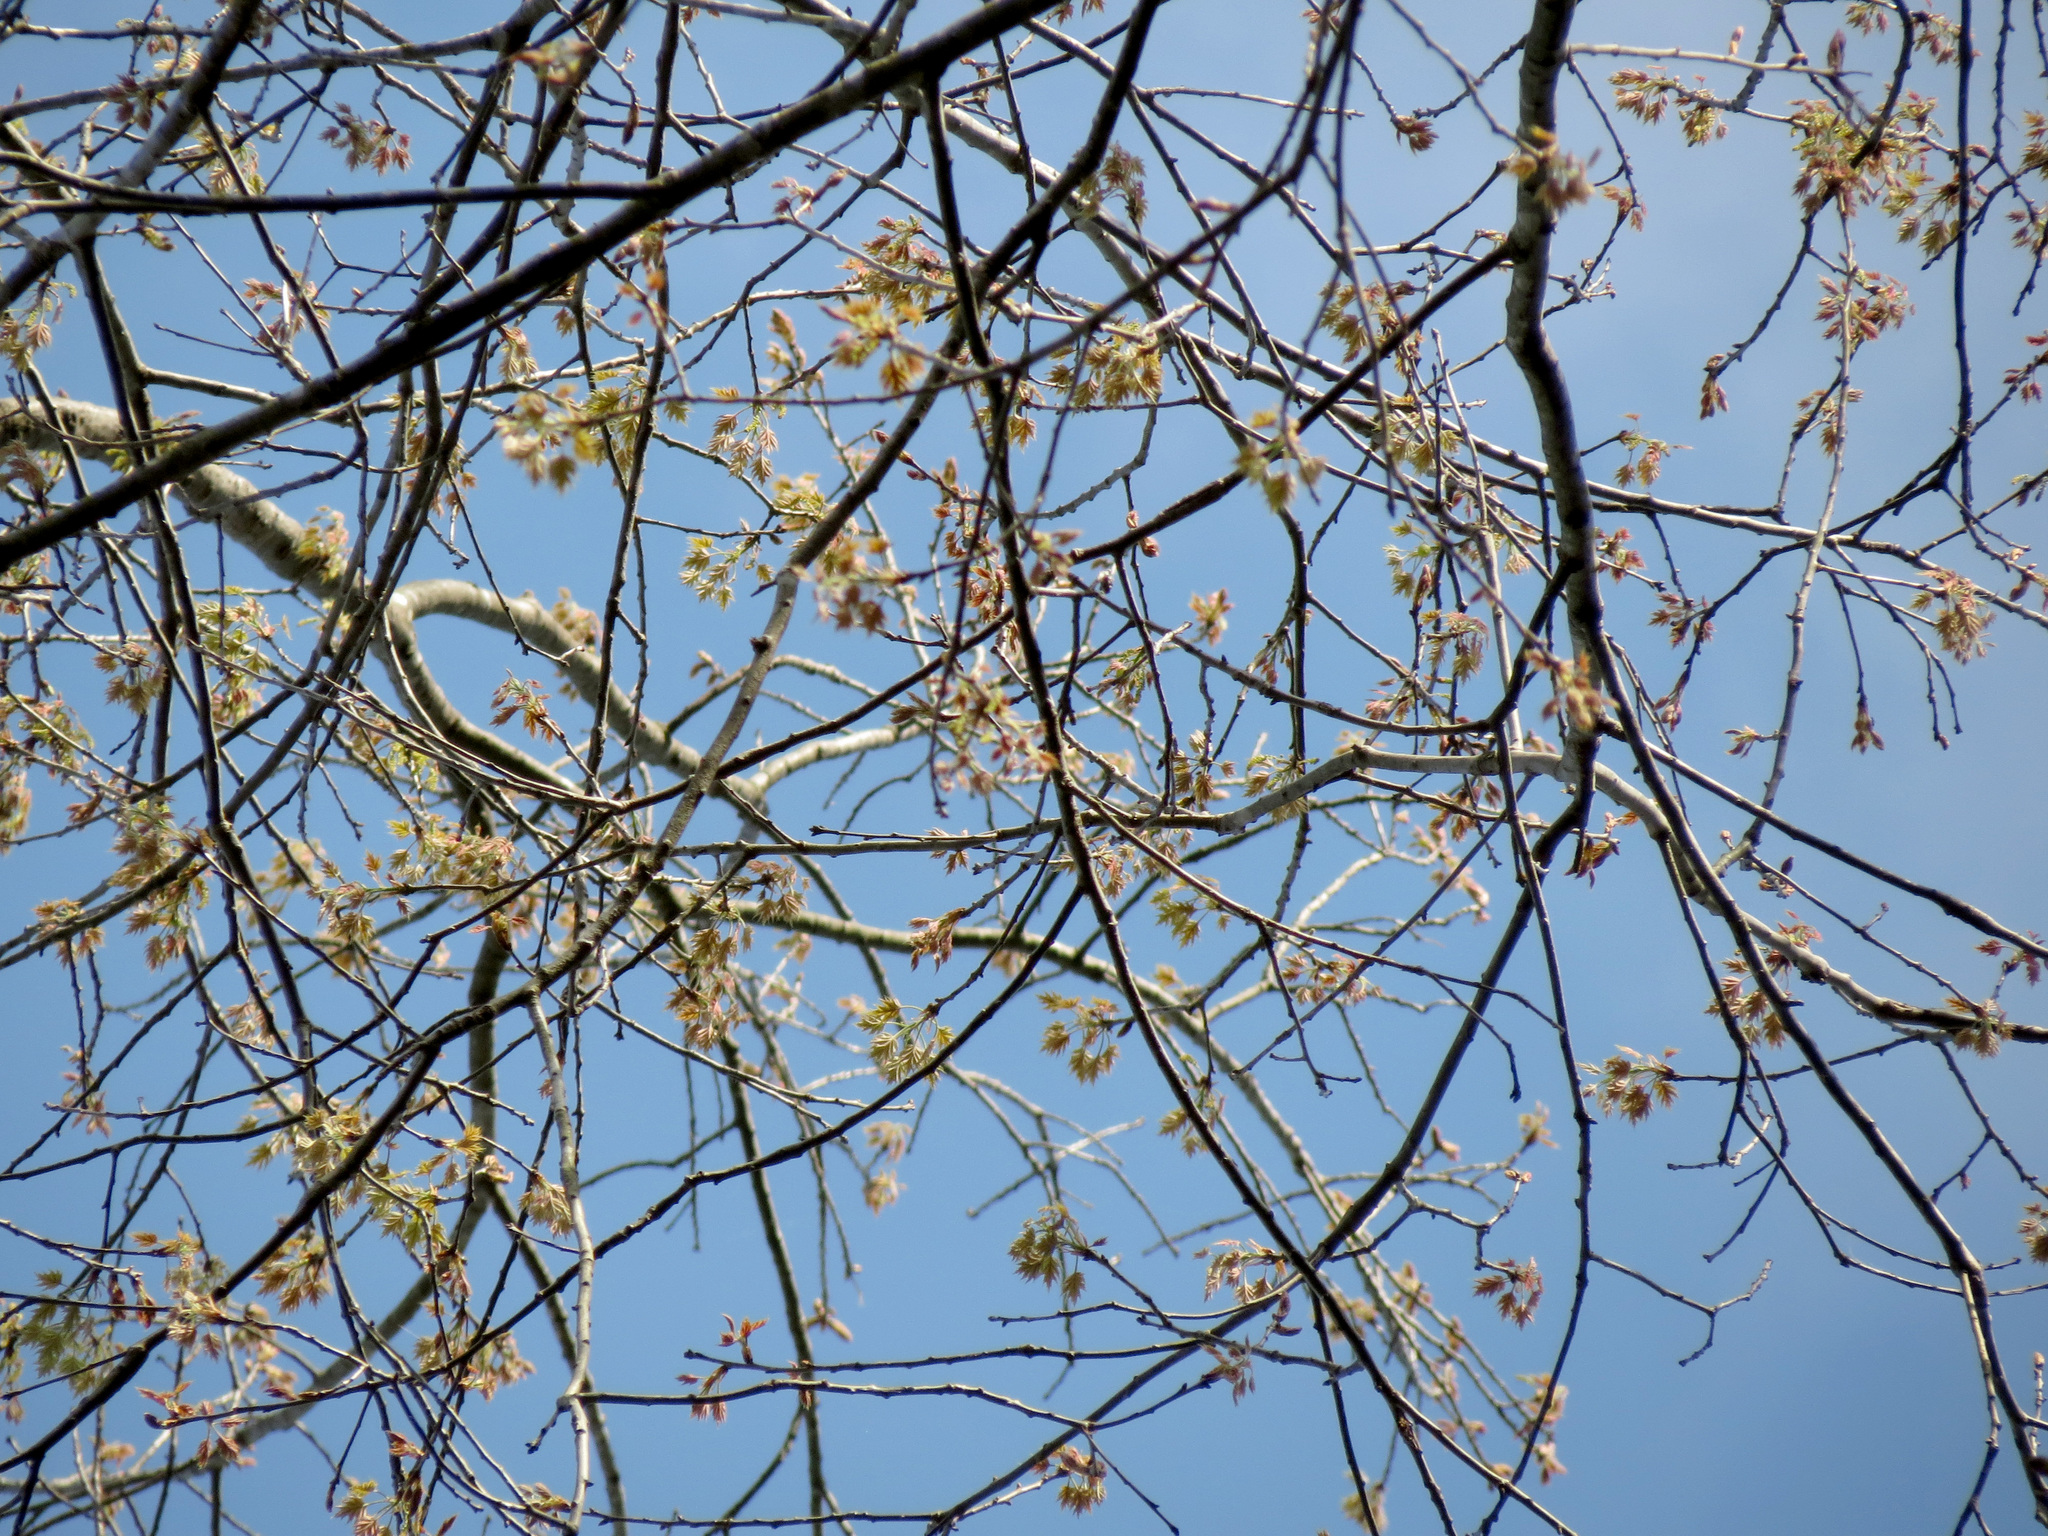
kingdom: Plantae
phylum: Tracheophyta
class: Magnoliopsida
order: Fagales
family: Fagaceae
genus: Quercus
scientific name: Quercus rubra
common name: Red oak
